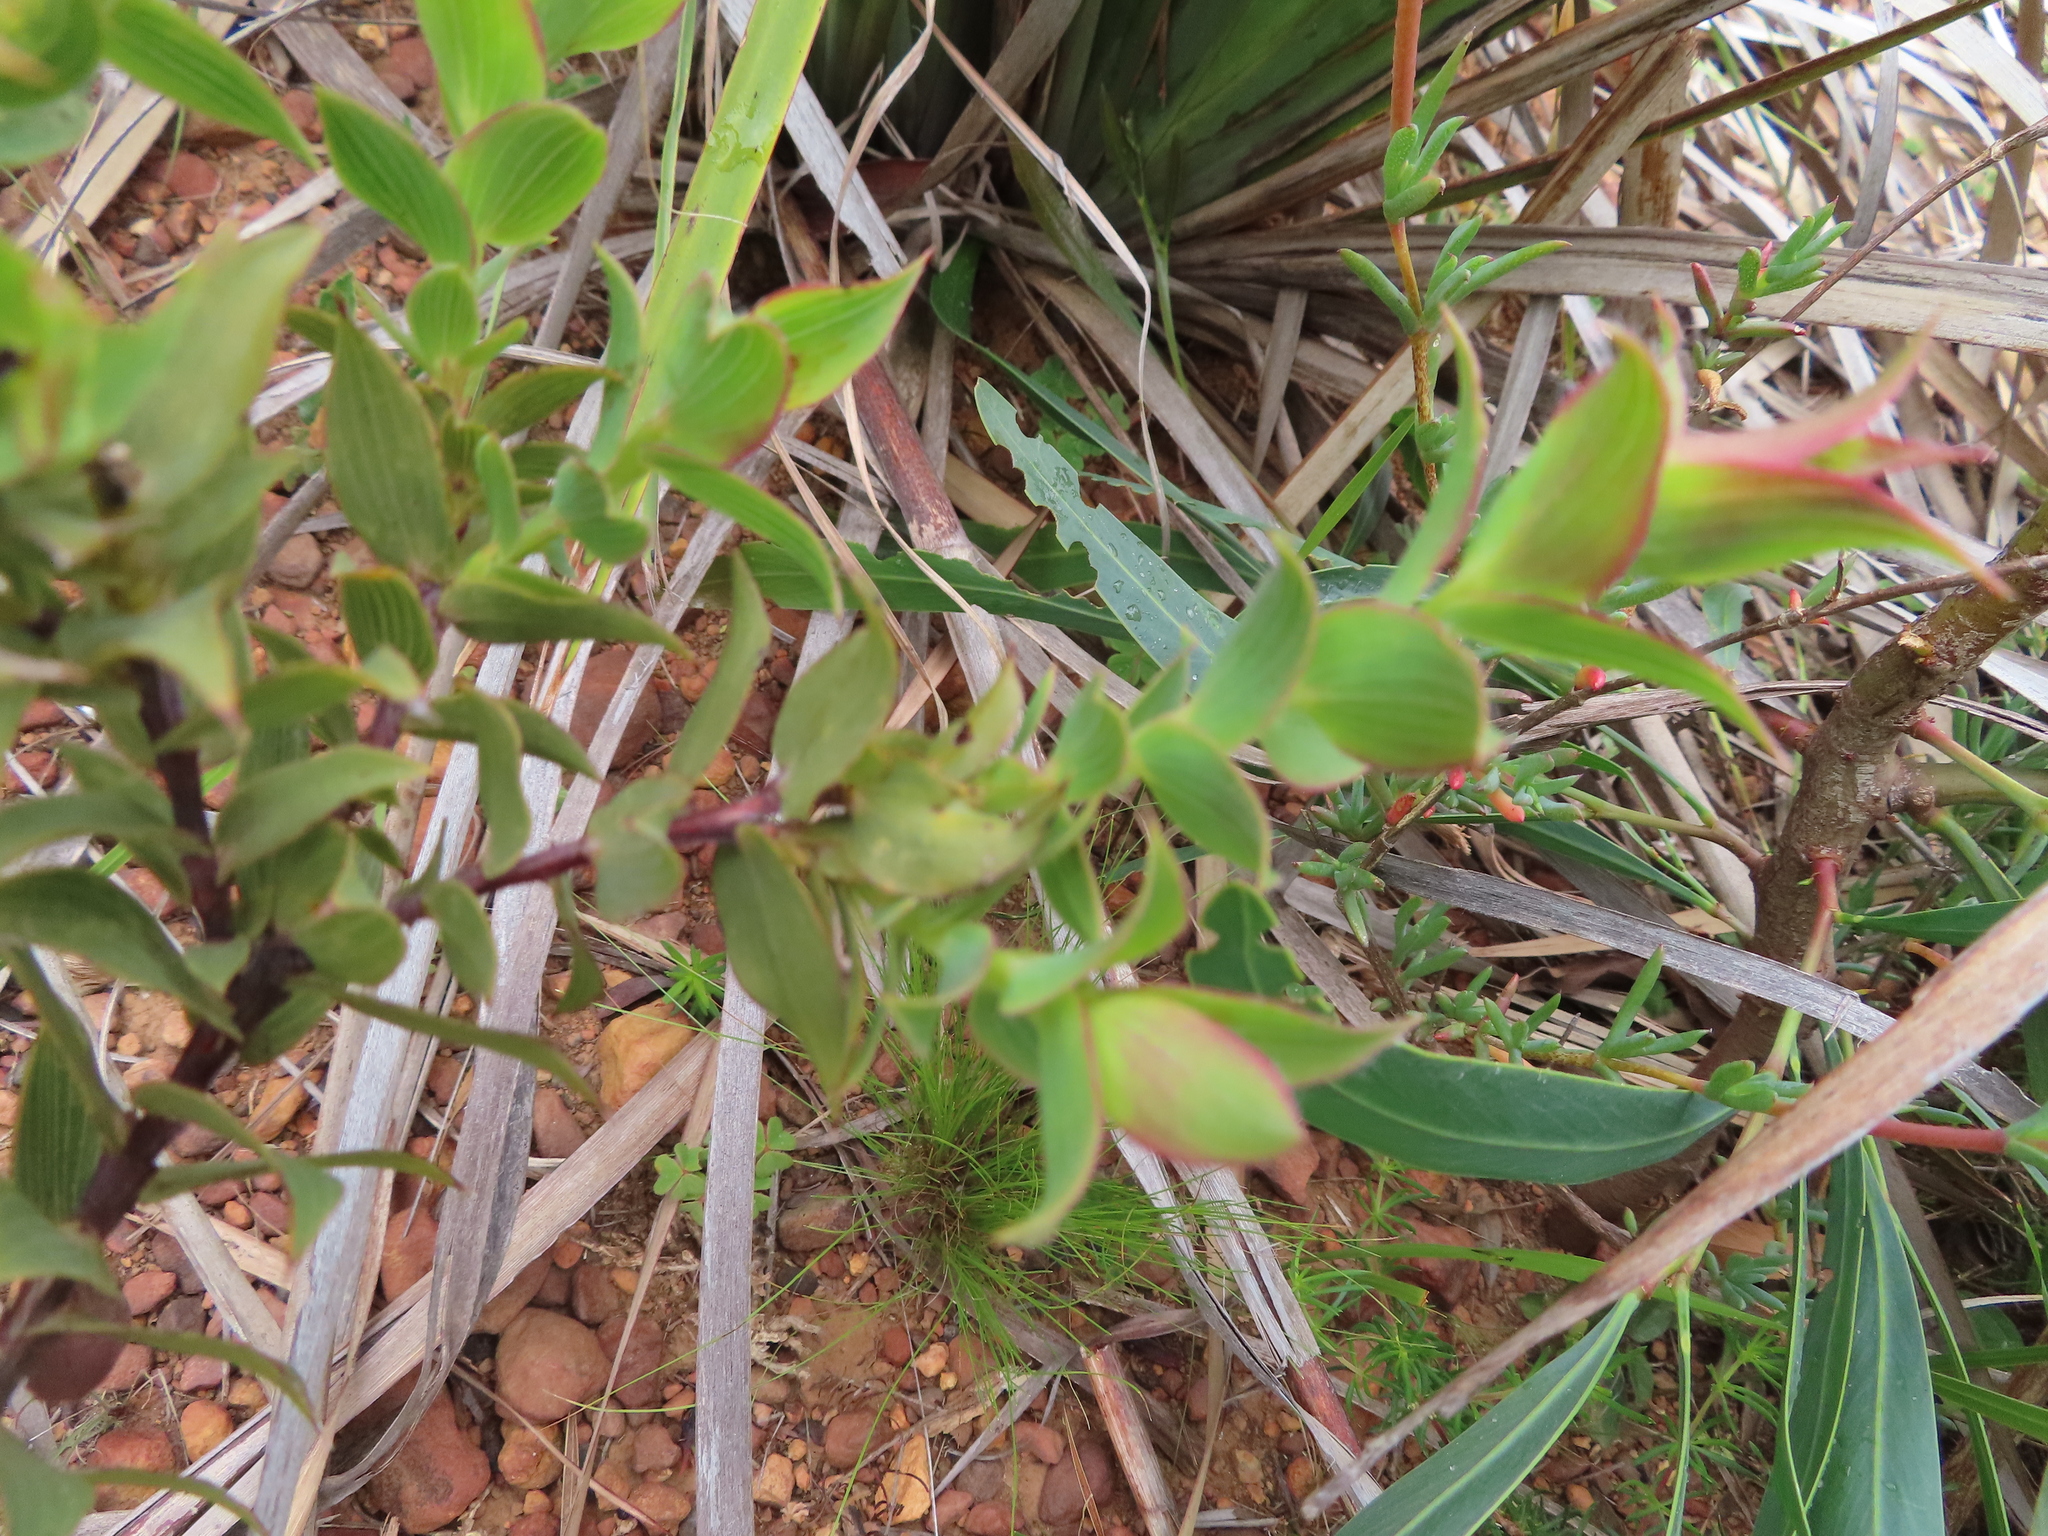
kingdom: Plantae
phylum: Tracheophyta
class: Magnoliopsida
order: Fabales
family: Fabaceae
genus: Aspalathus
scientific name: Aspalathus crenata
